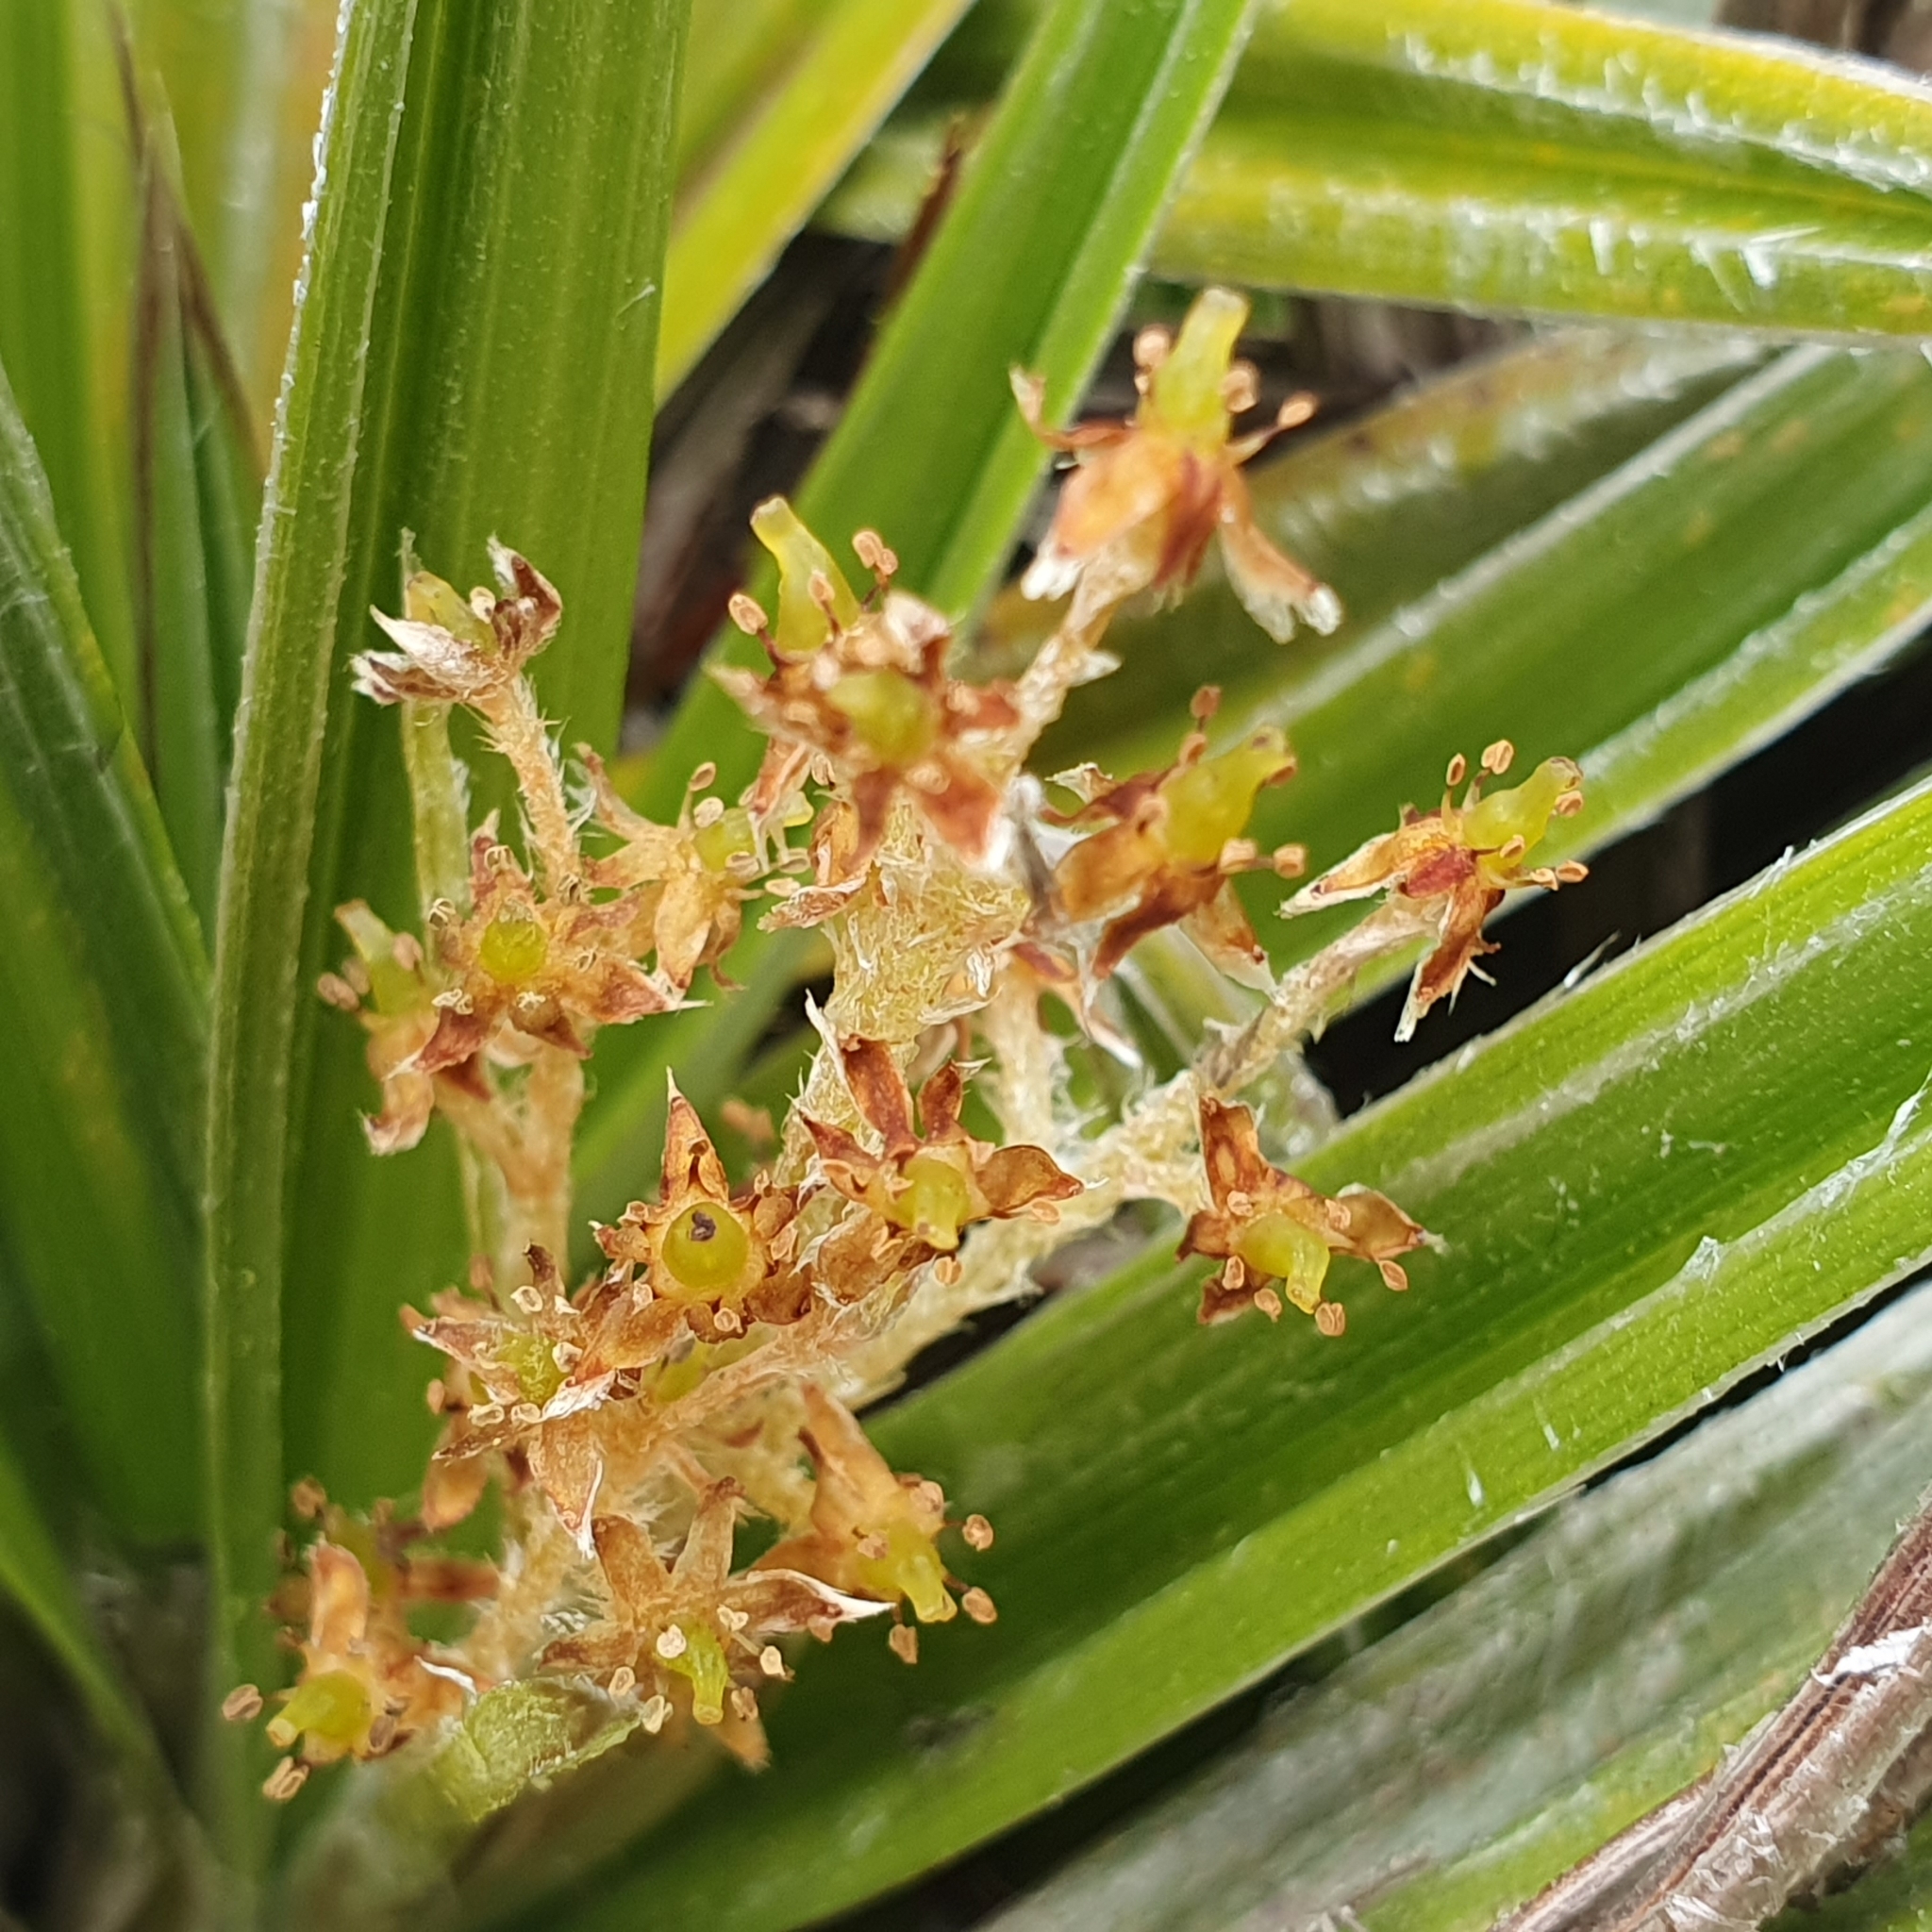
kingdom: Plantae
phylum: Tracheophyta
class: Liliopsida
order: Asparagales
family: Asteliaceae
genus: Astelia
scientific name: Astelia alpina
